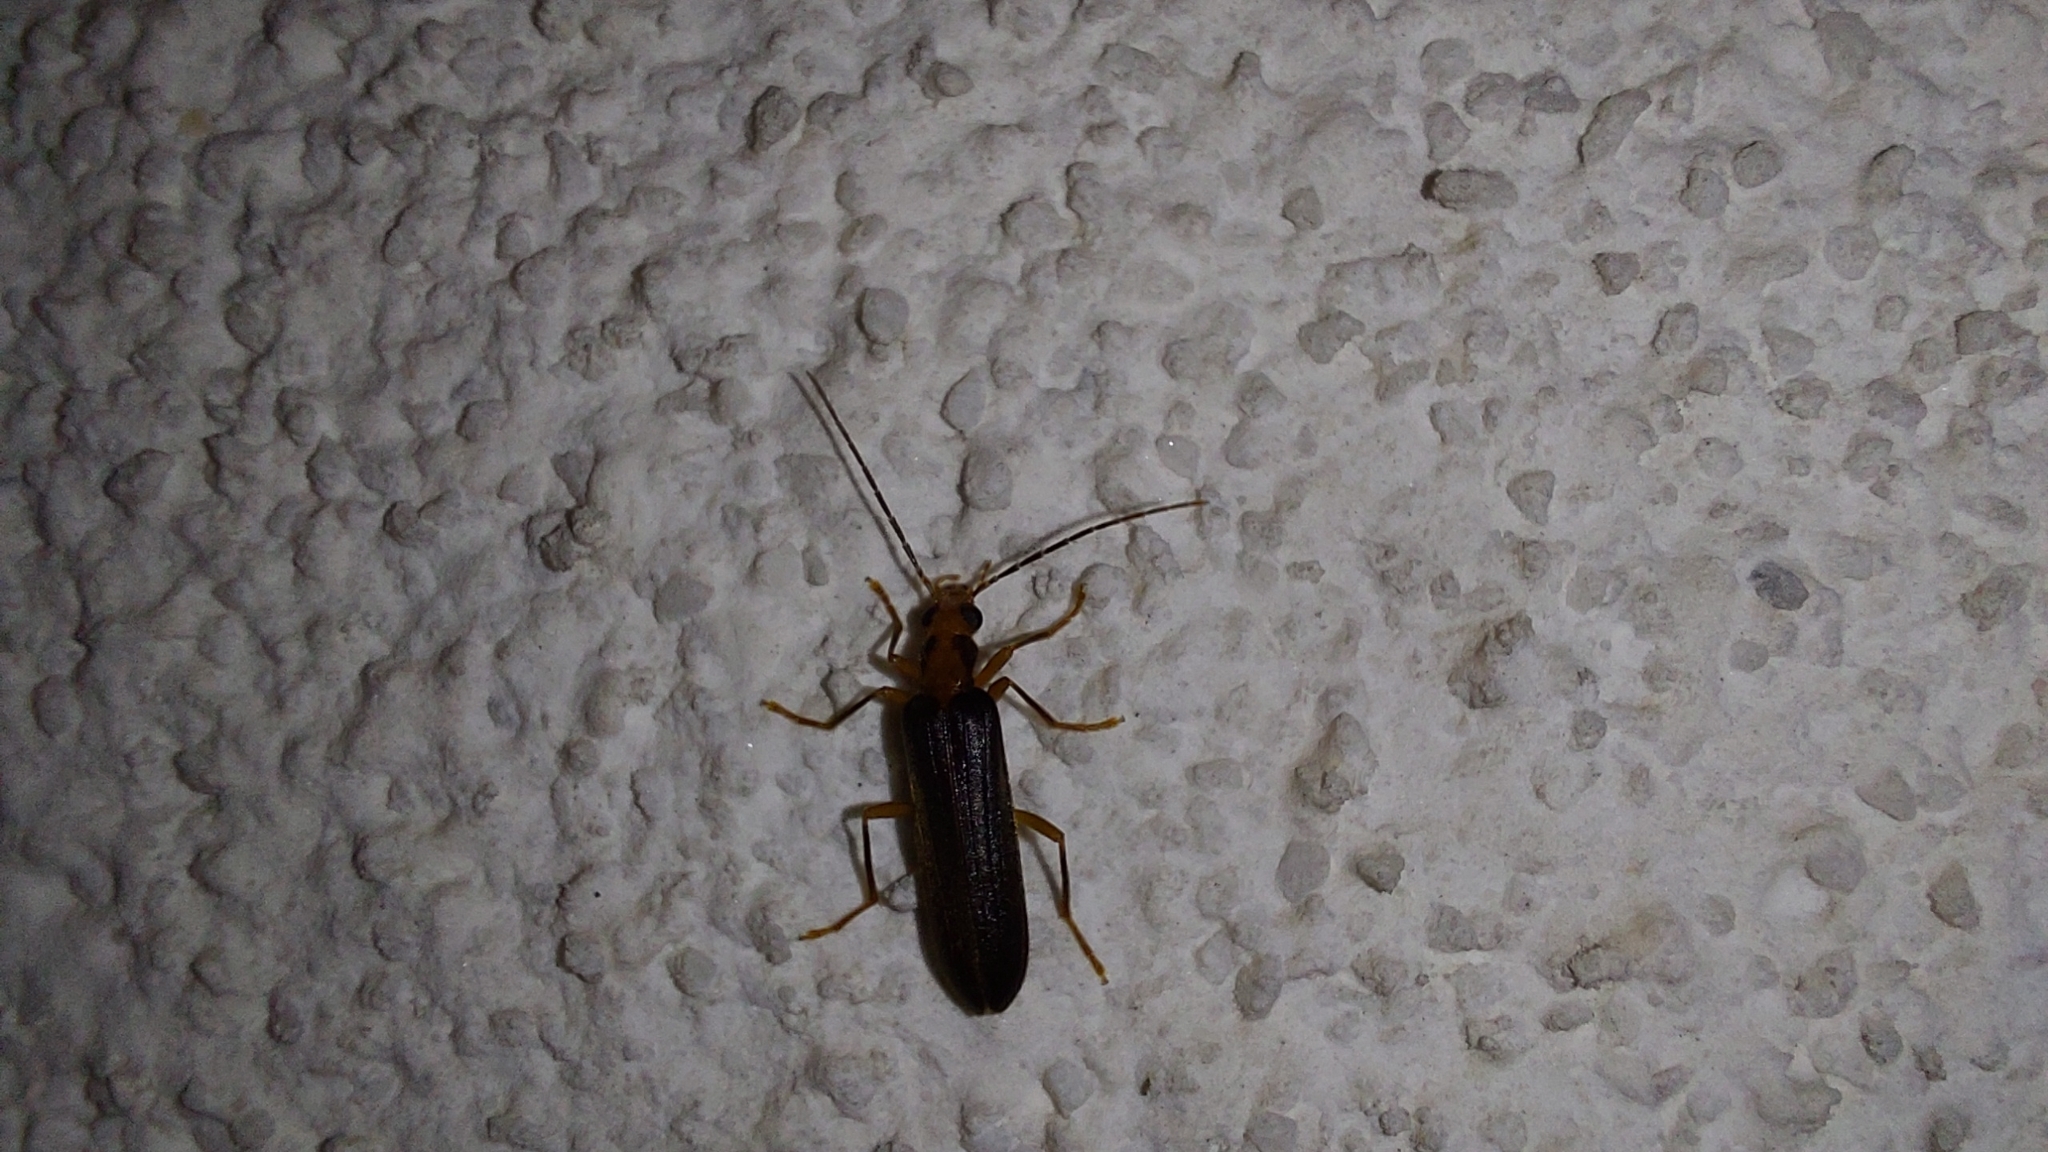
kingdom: Animalia
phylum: Arthropoda
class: Insecta
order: Coleoptera
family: Oedemeridae
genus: Nacerdes
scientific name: Nacerdes carniolica
